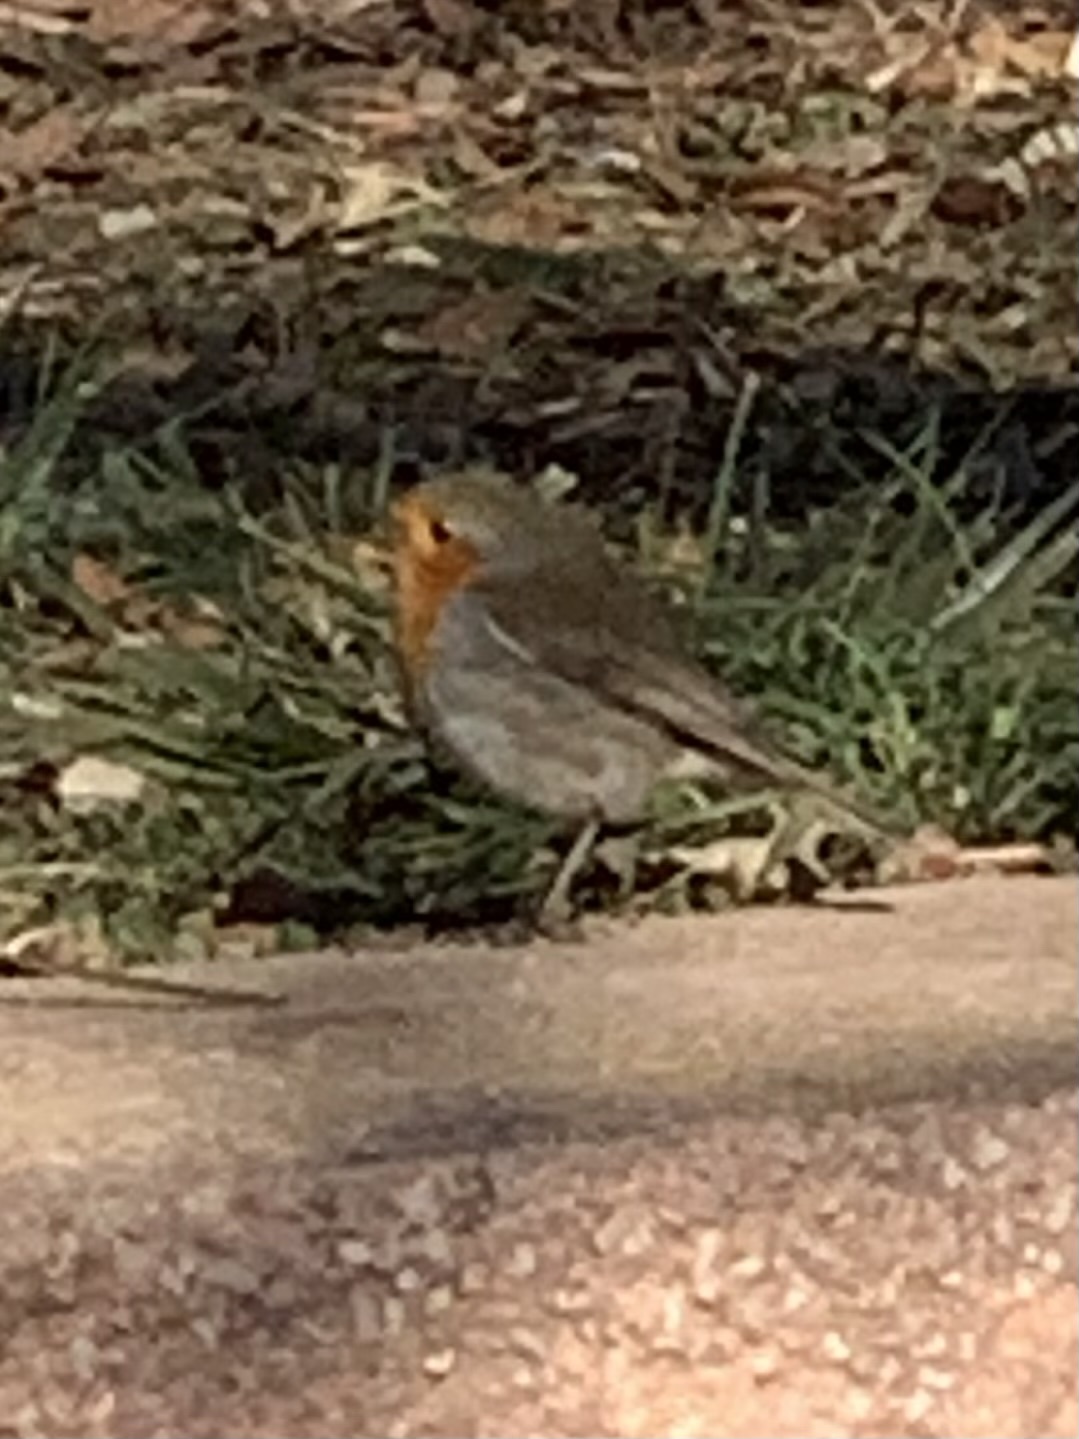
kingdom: Animalia
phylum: Chordata
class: Aves
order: Passeriformes
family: Muscicapidae
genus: Erithacus
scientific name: Erithacus rubecula
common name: European robin
